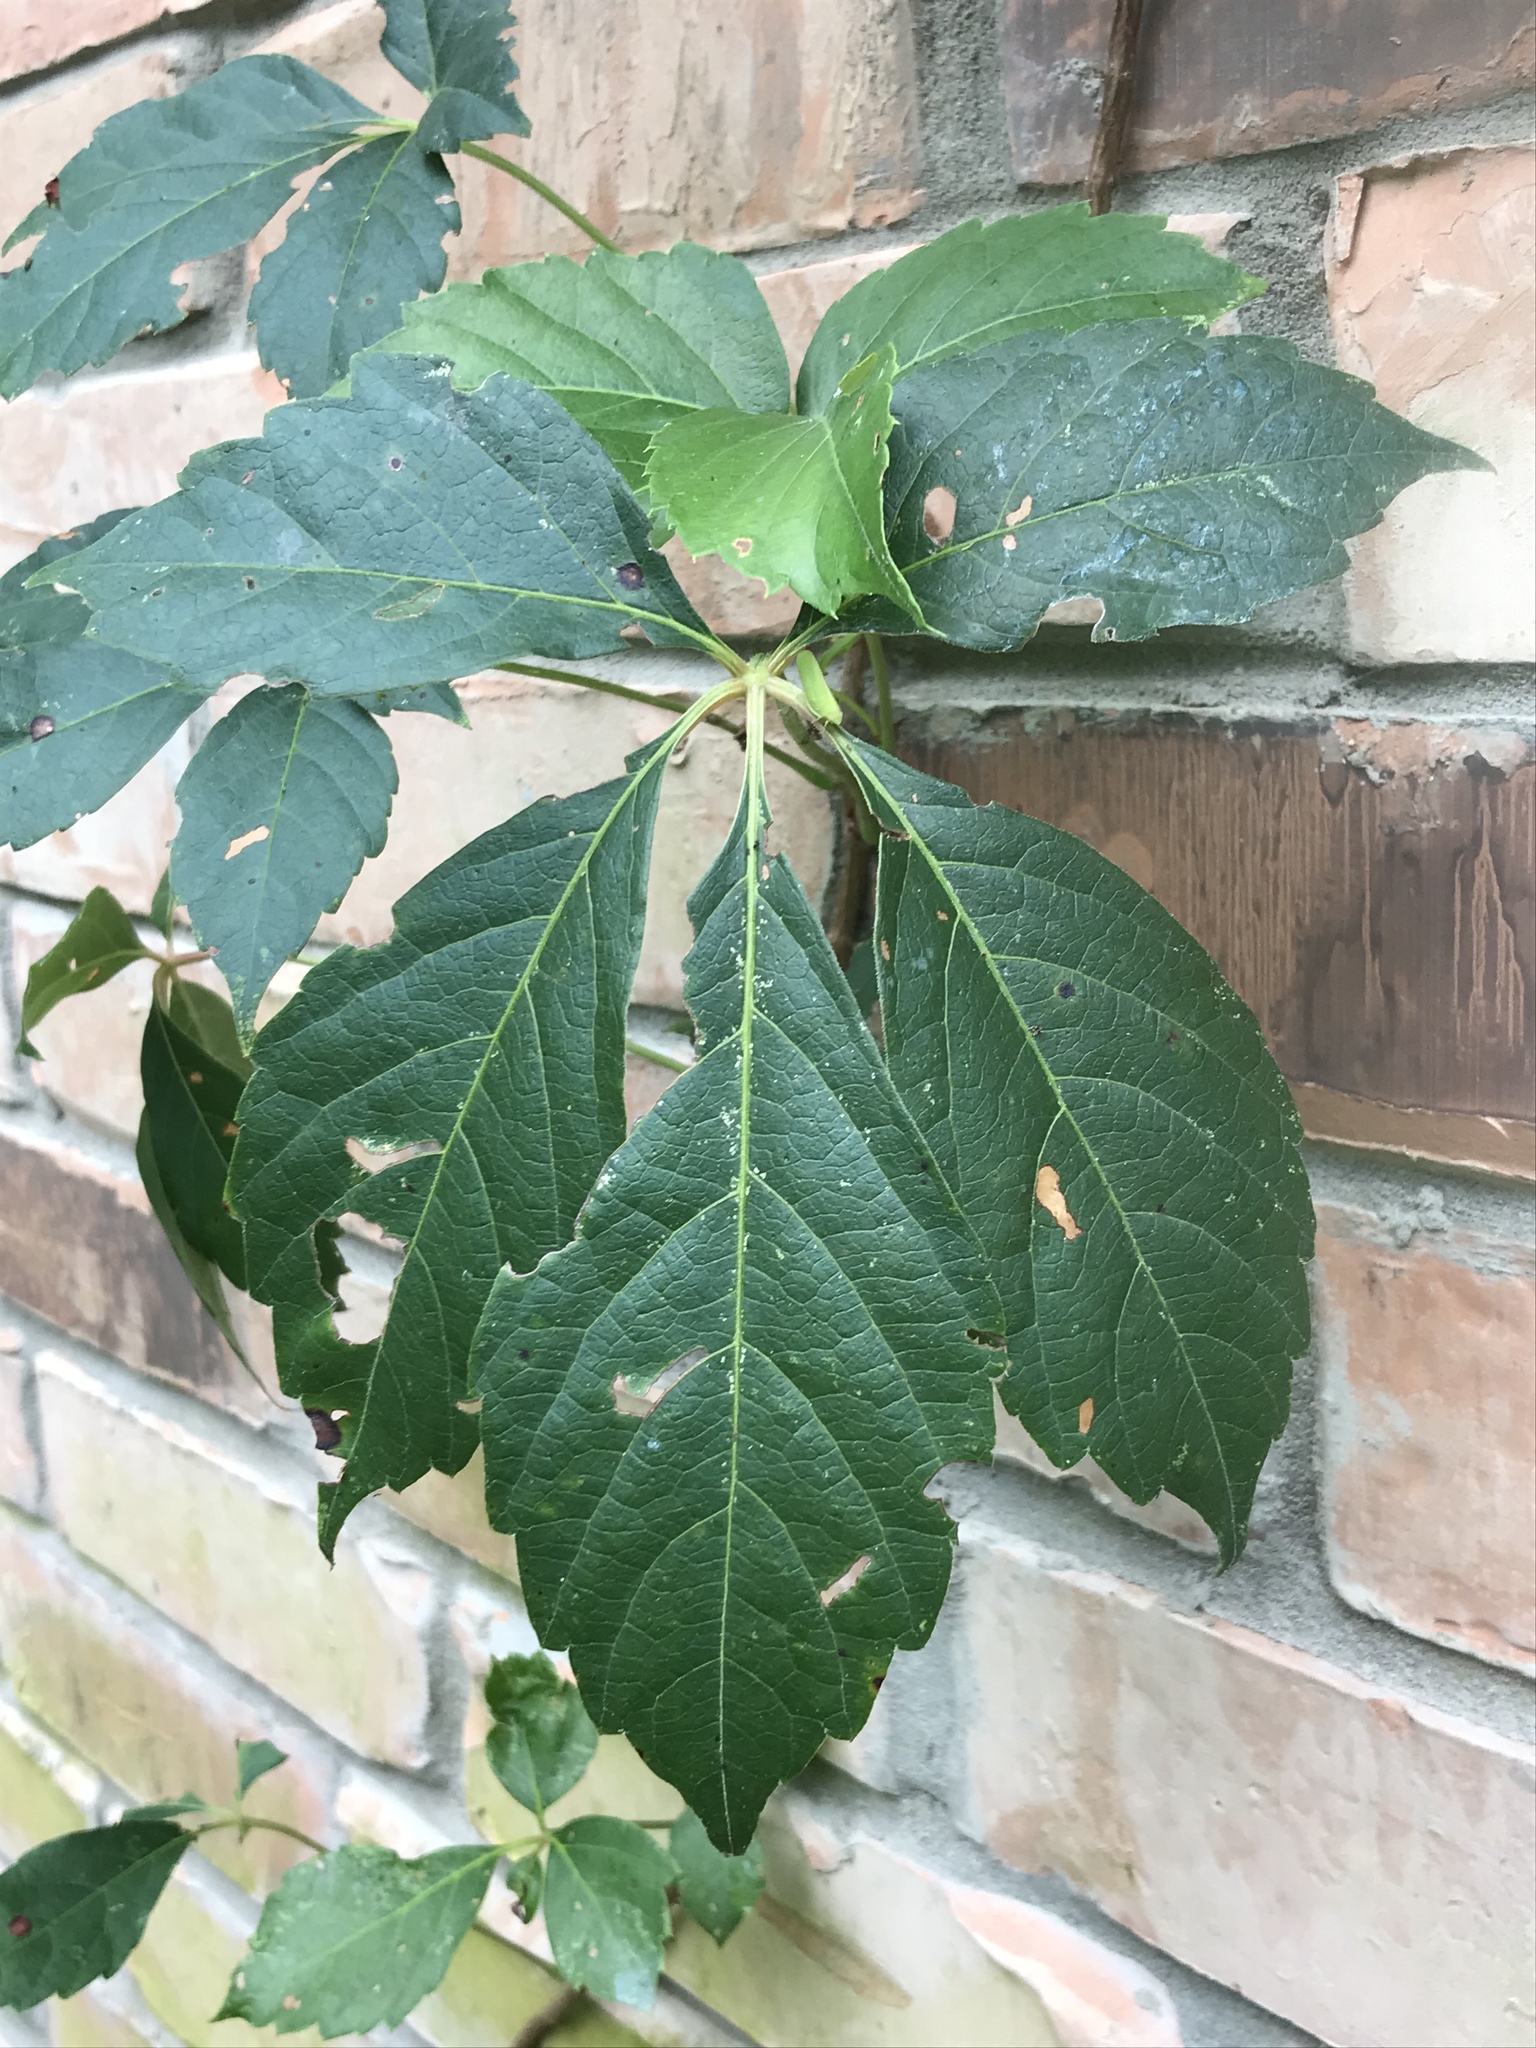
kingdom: Plantae
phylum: Tracheophyta
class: Magnoliopsida
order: Vitales
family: Vitaceae
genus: Parthenocissus
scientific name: Parthenocissus quinquefolia
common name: Virginia-creeper
